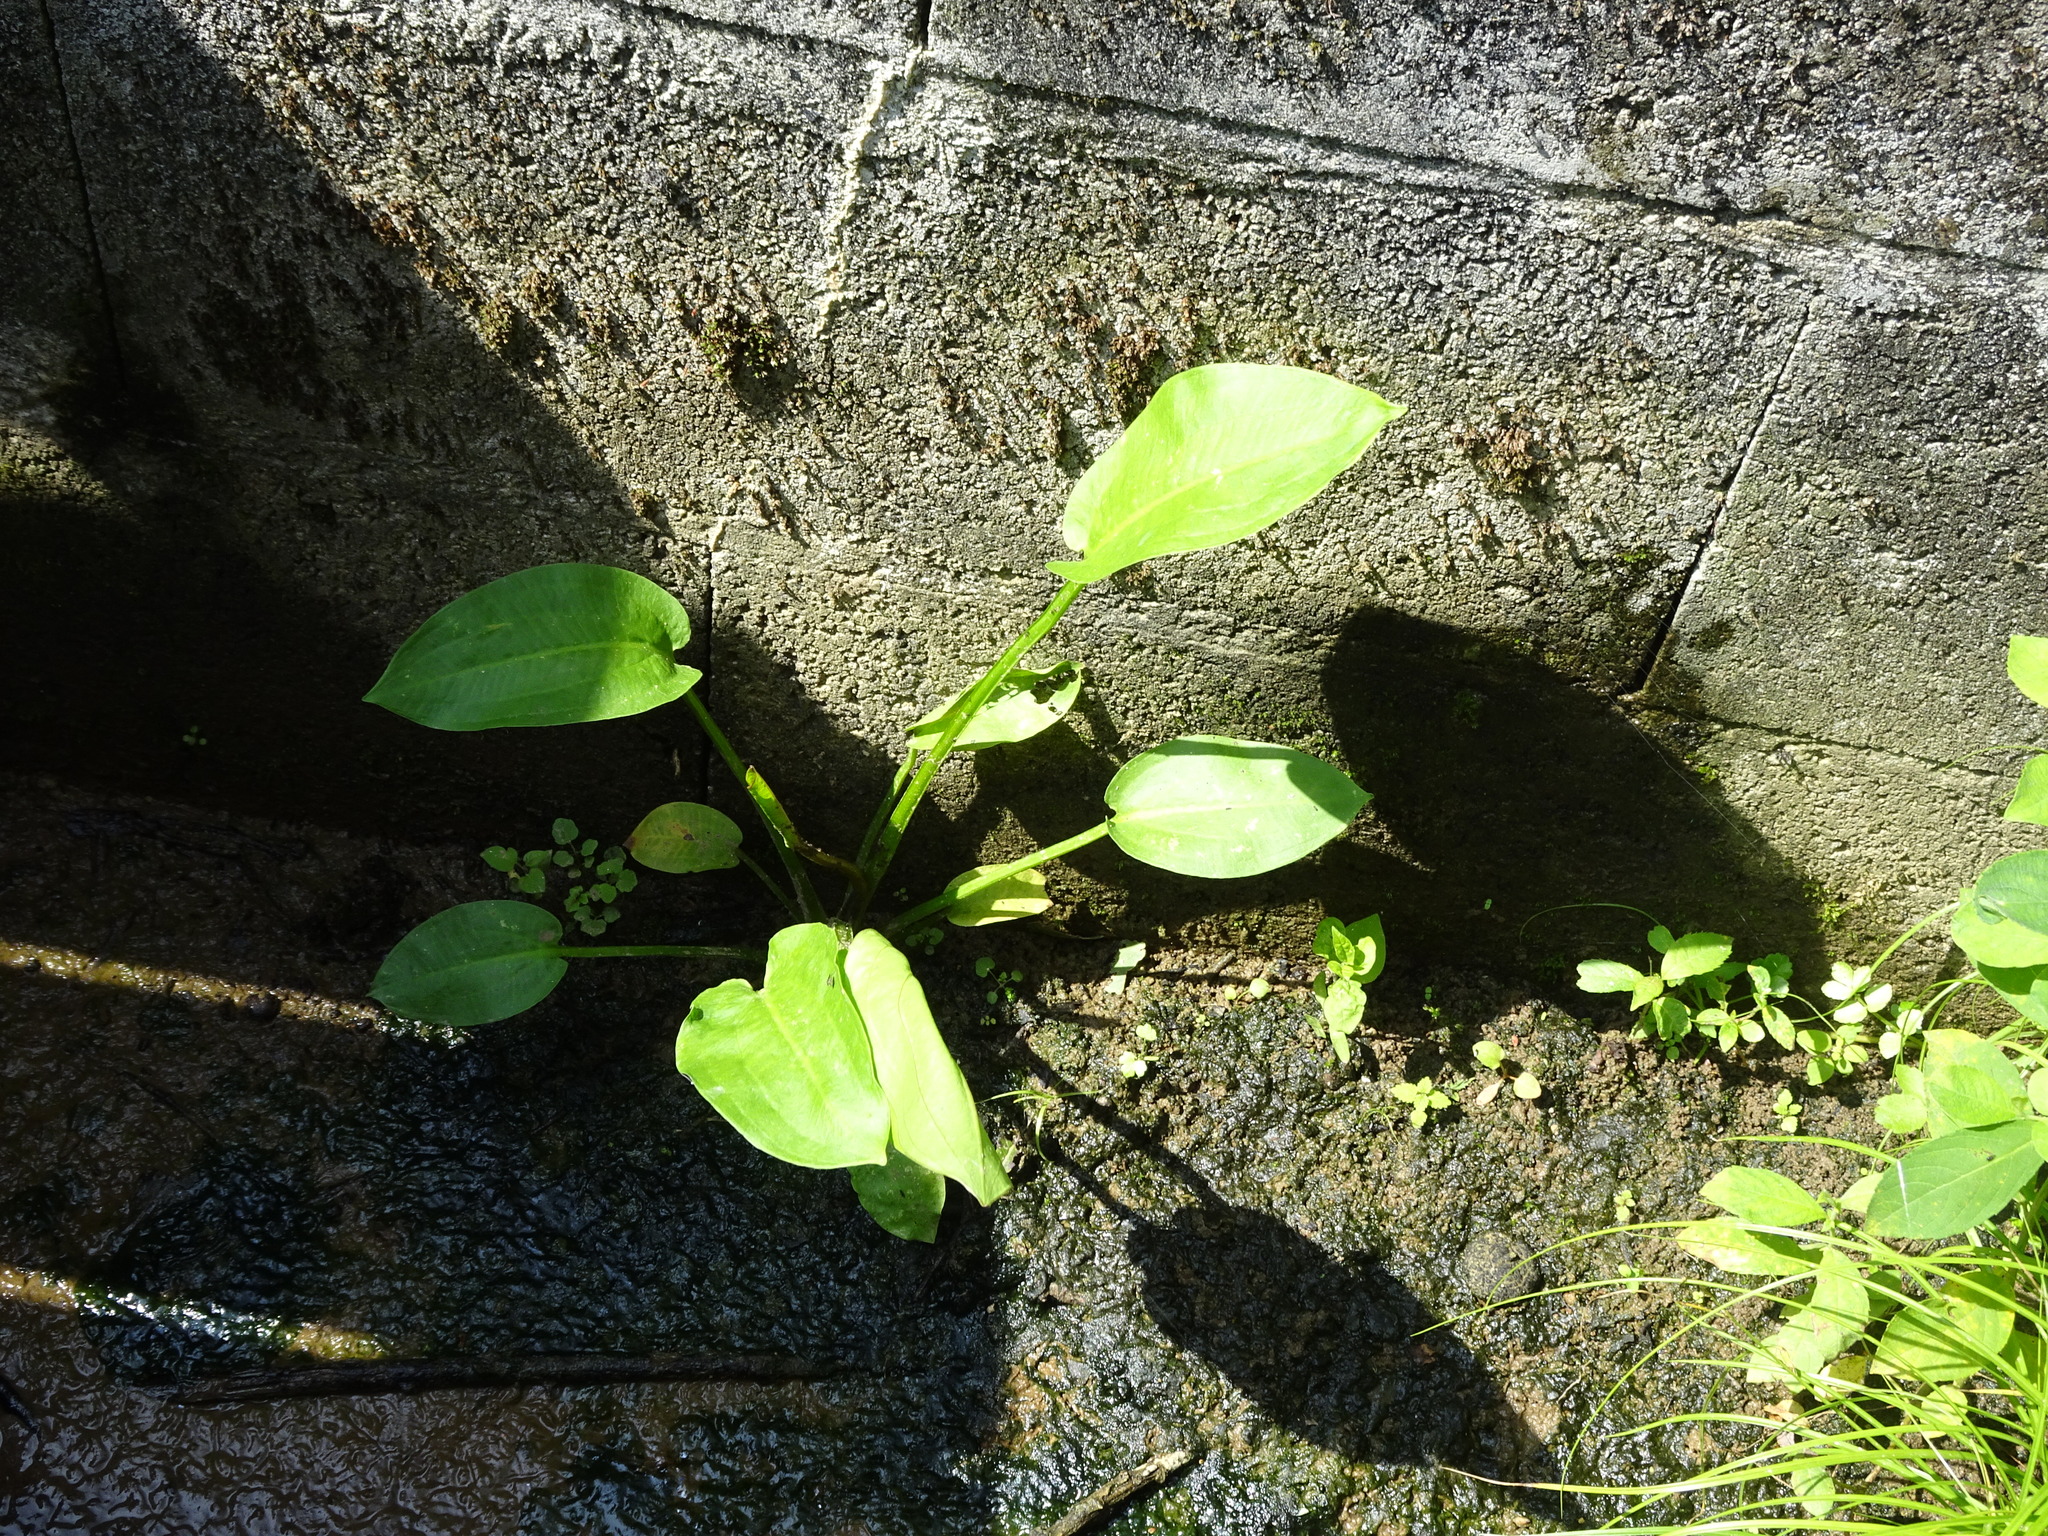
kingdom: Plantae
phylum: Tracheophyta
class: Liliopsida
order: Alismatales
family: Alismataceae
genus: Alisma
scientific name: Alisma plantago-aquatica
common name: Water-plantain
